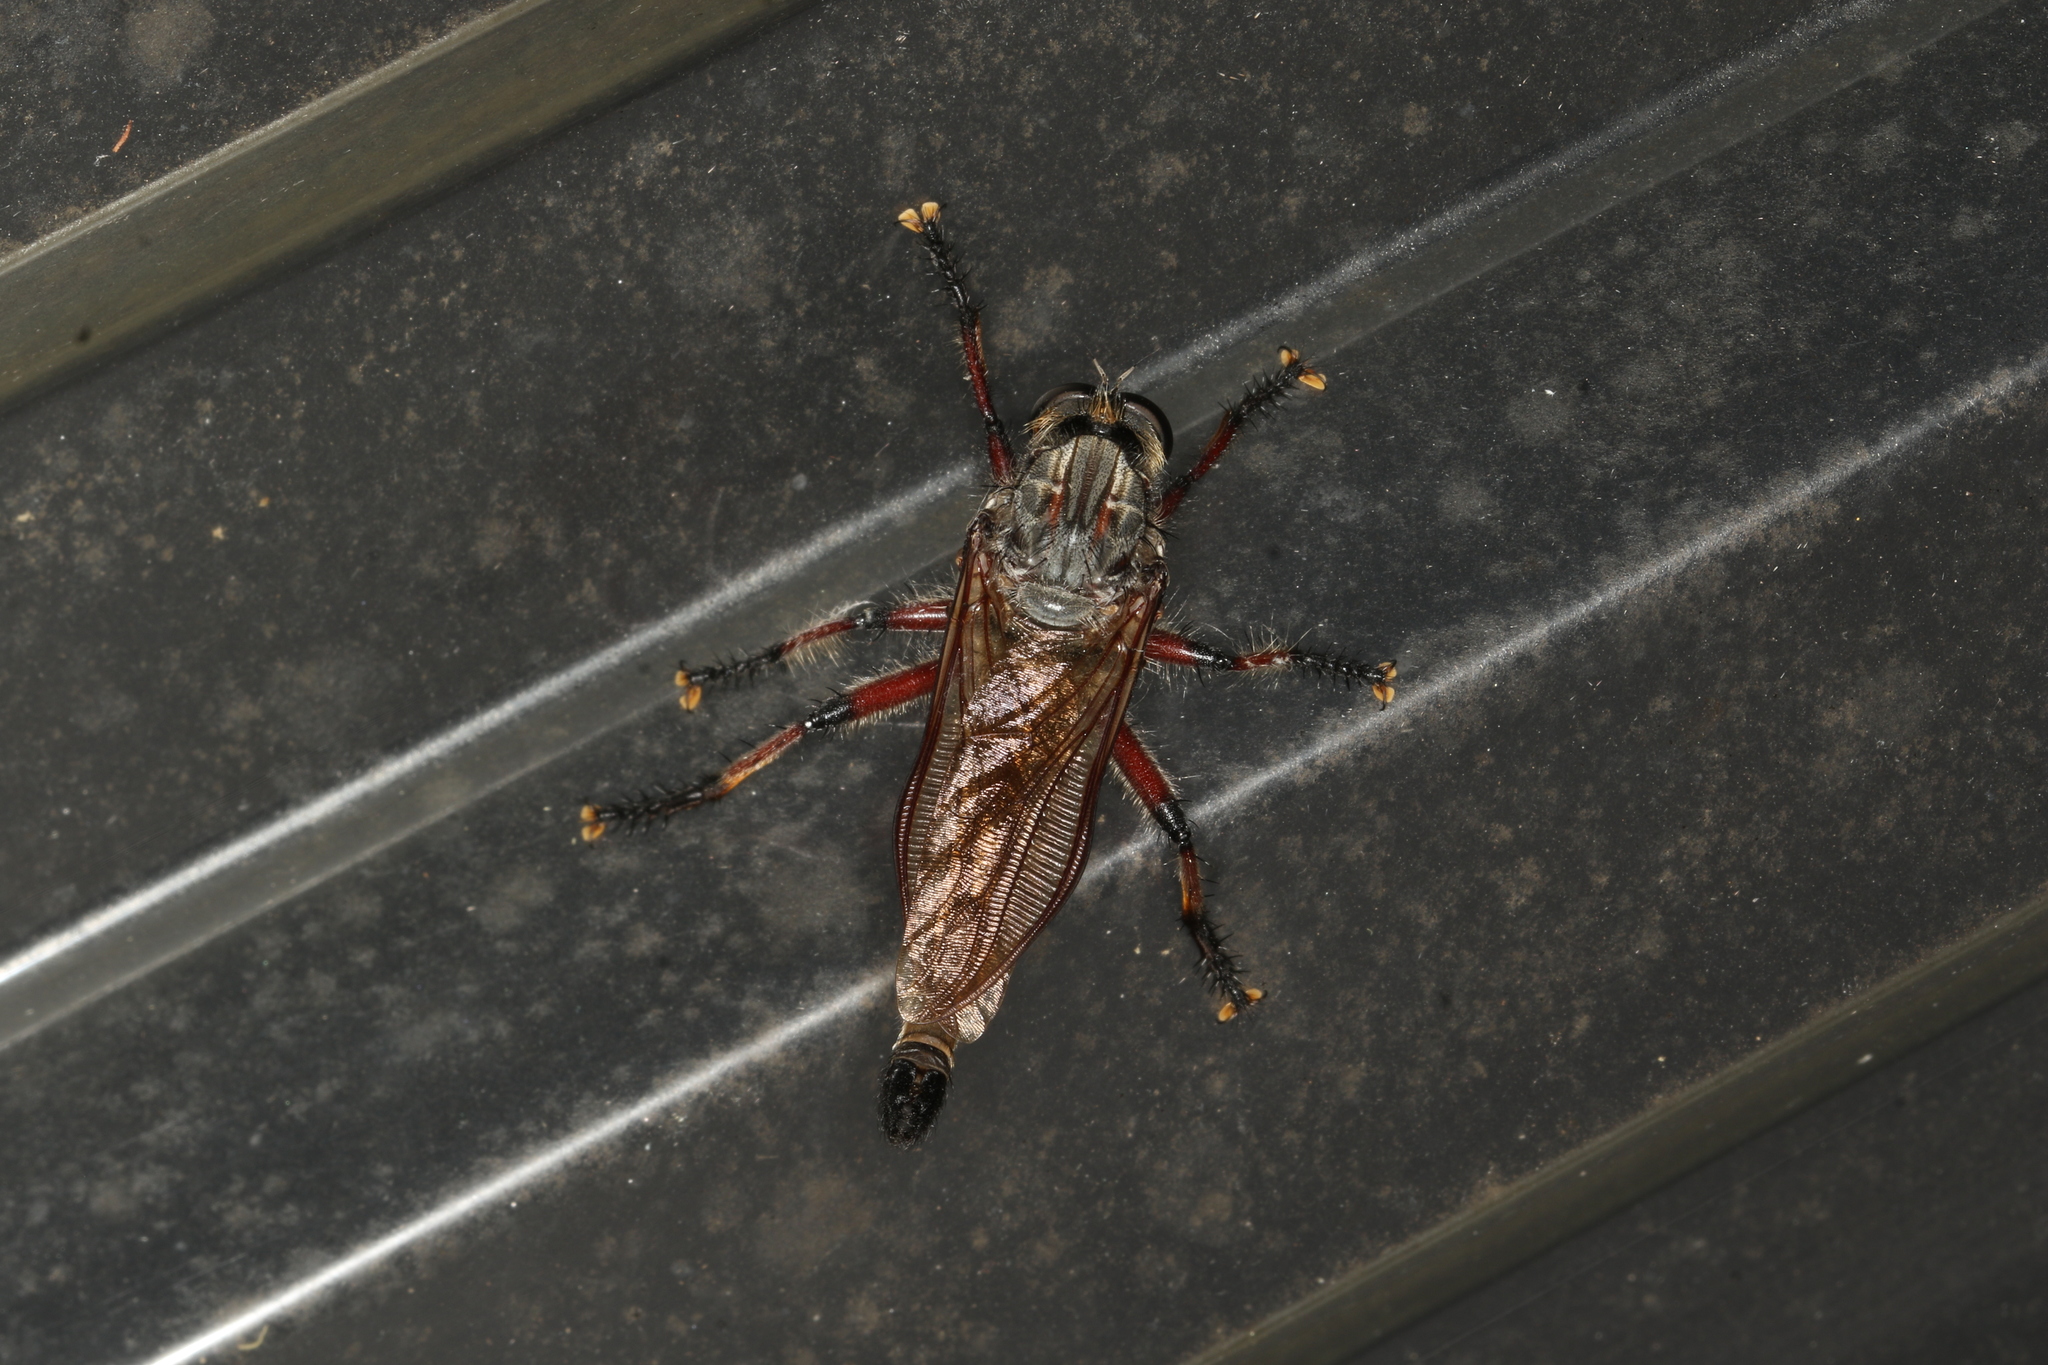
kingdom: Animalia
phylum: Arthropoda
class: Insecta
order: Diptera
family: Asilidae
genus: Neoaratus
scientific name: Neoaratus hercules
